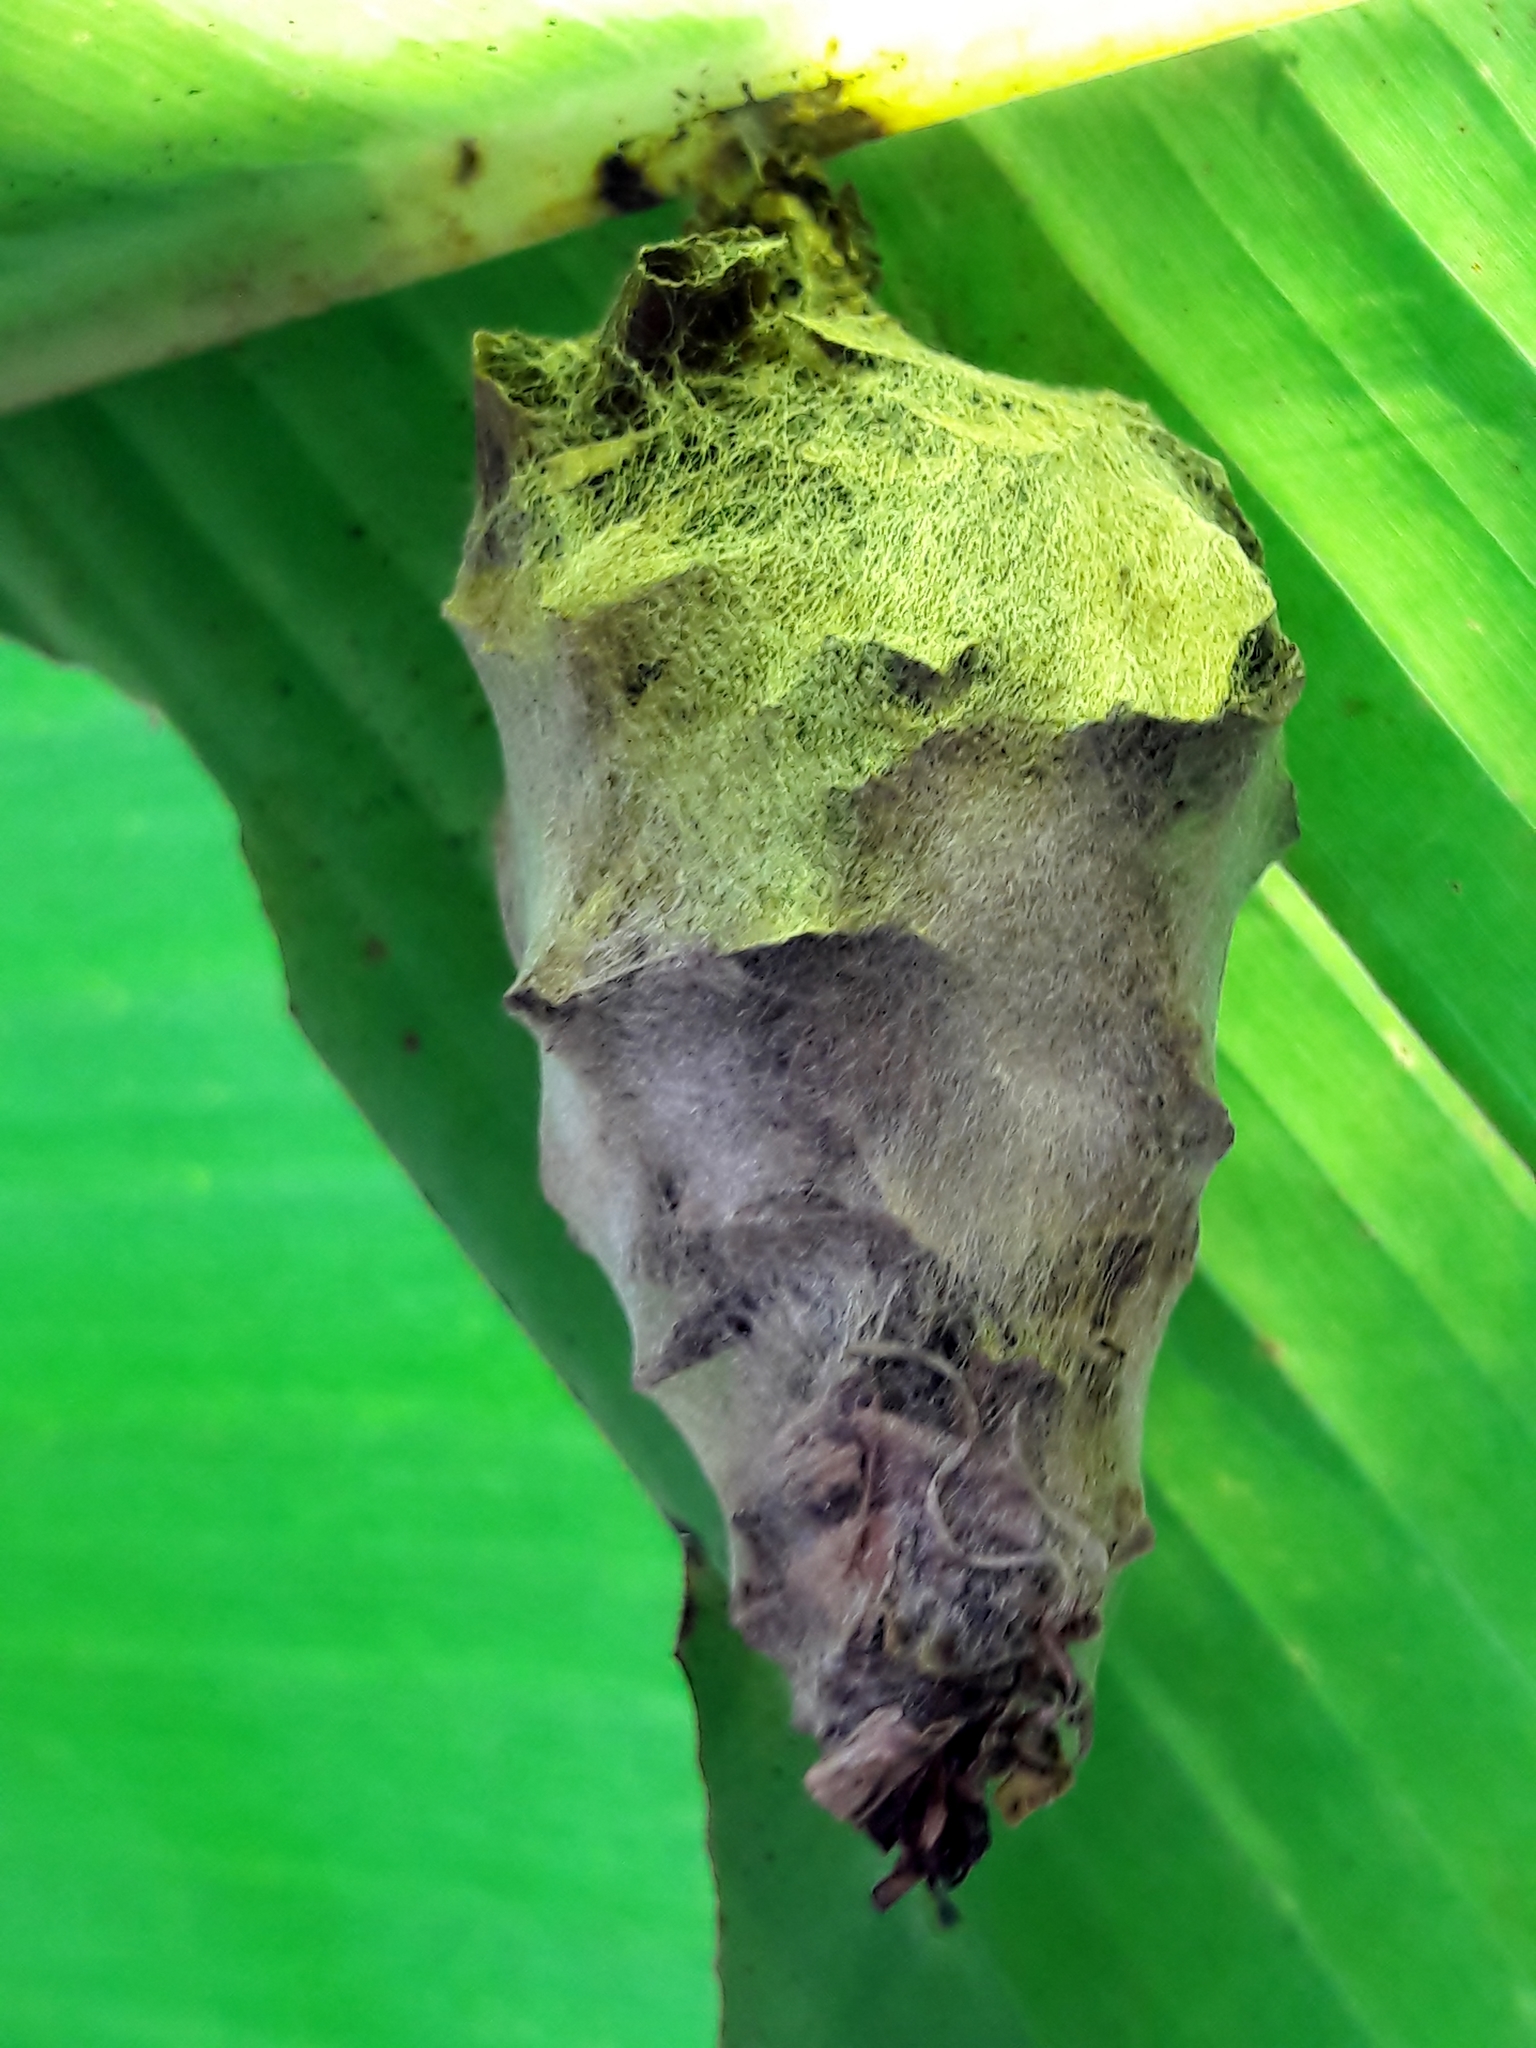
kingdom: Animalia
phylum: Arthropoda
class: Insecta
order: Lepidoptera
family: Psychidae
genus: Oiketicus
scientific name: Oiketicus kirbyi
